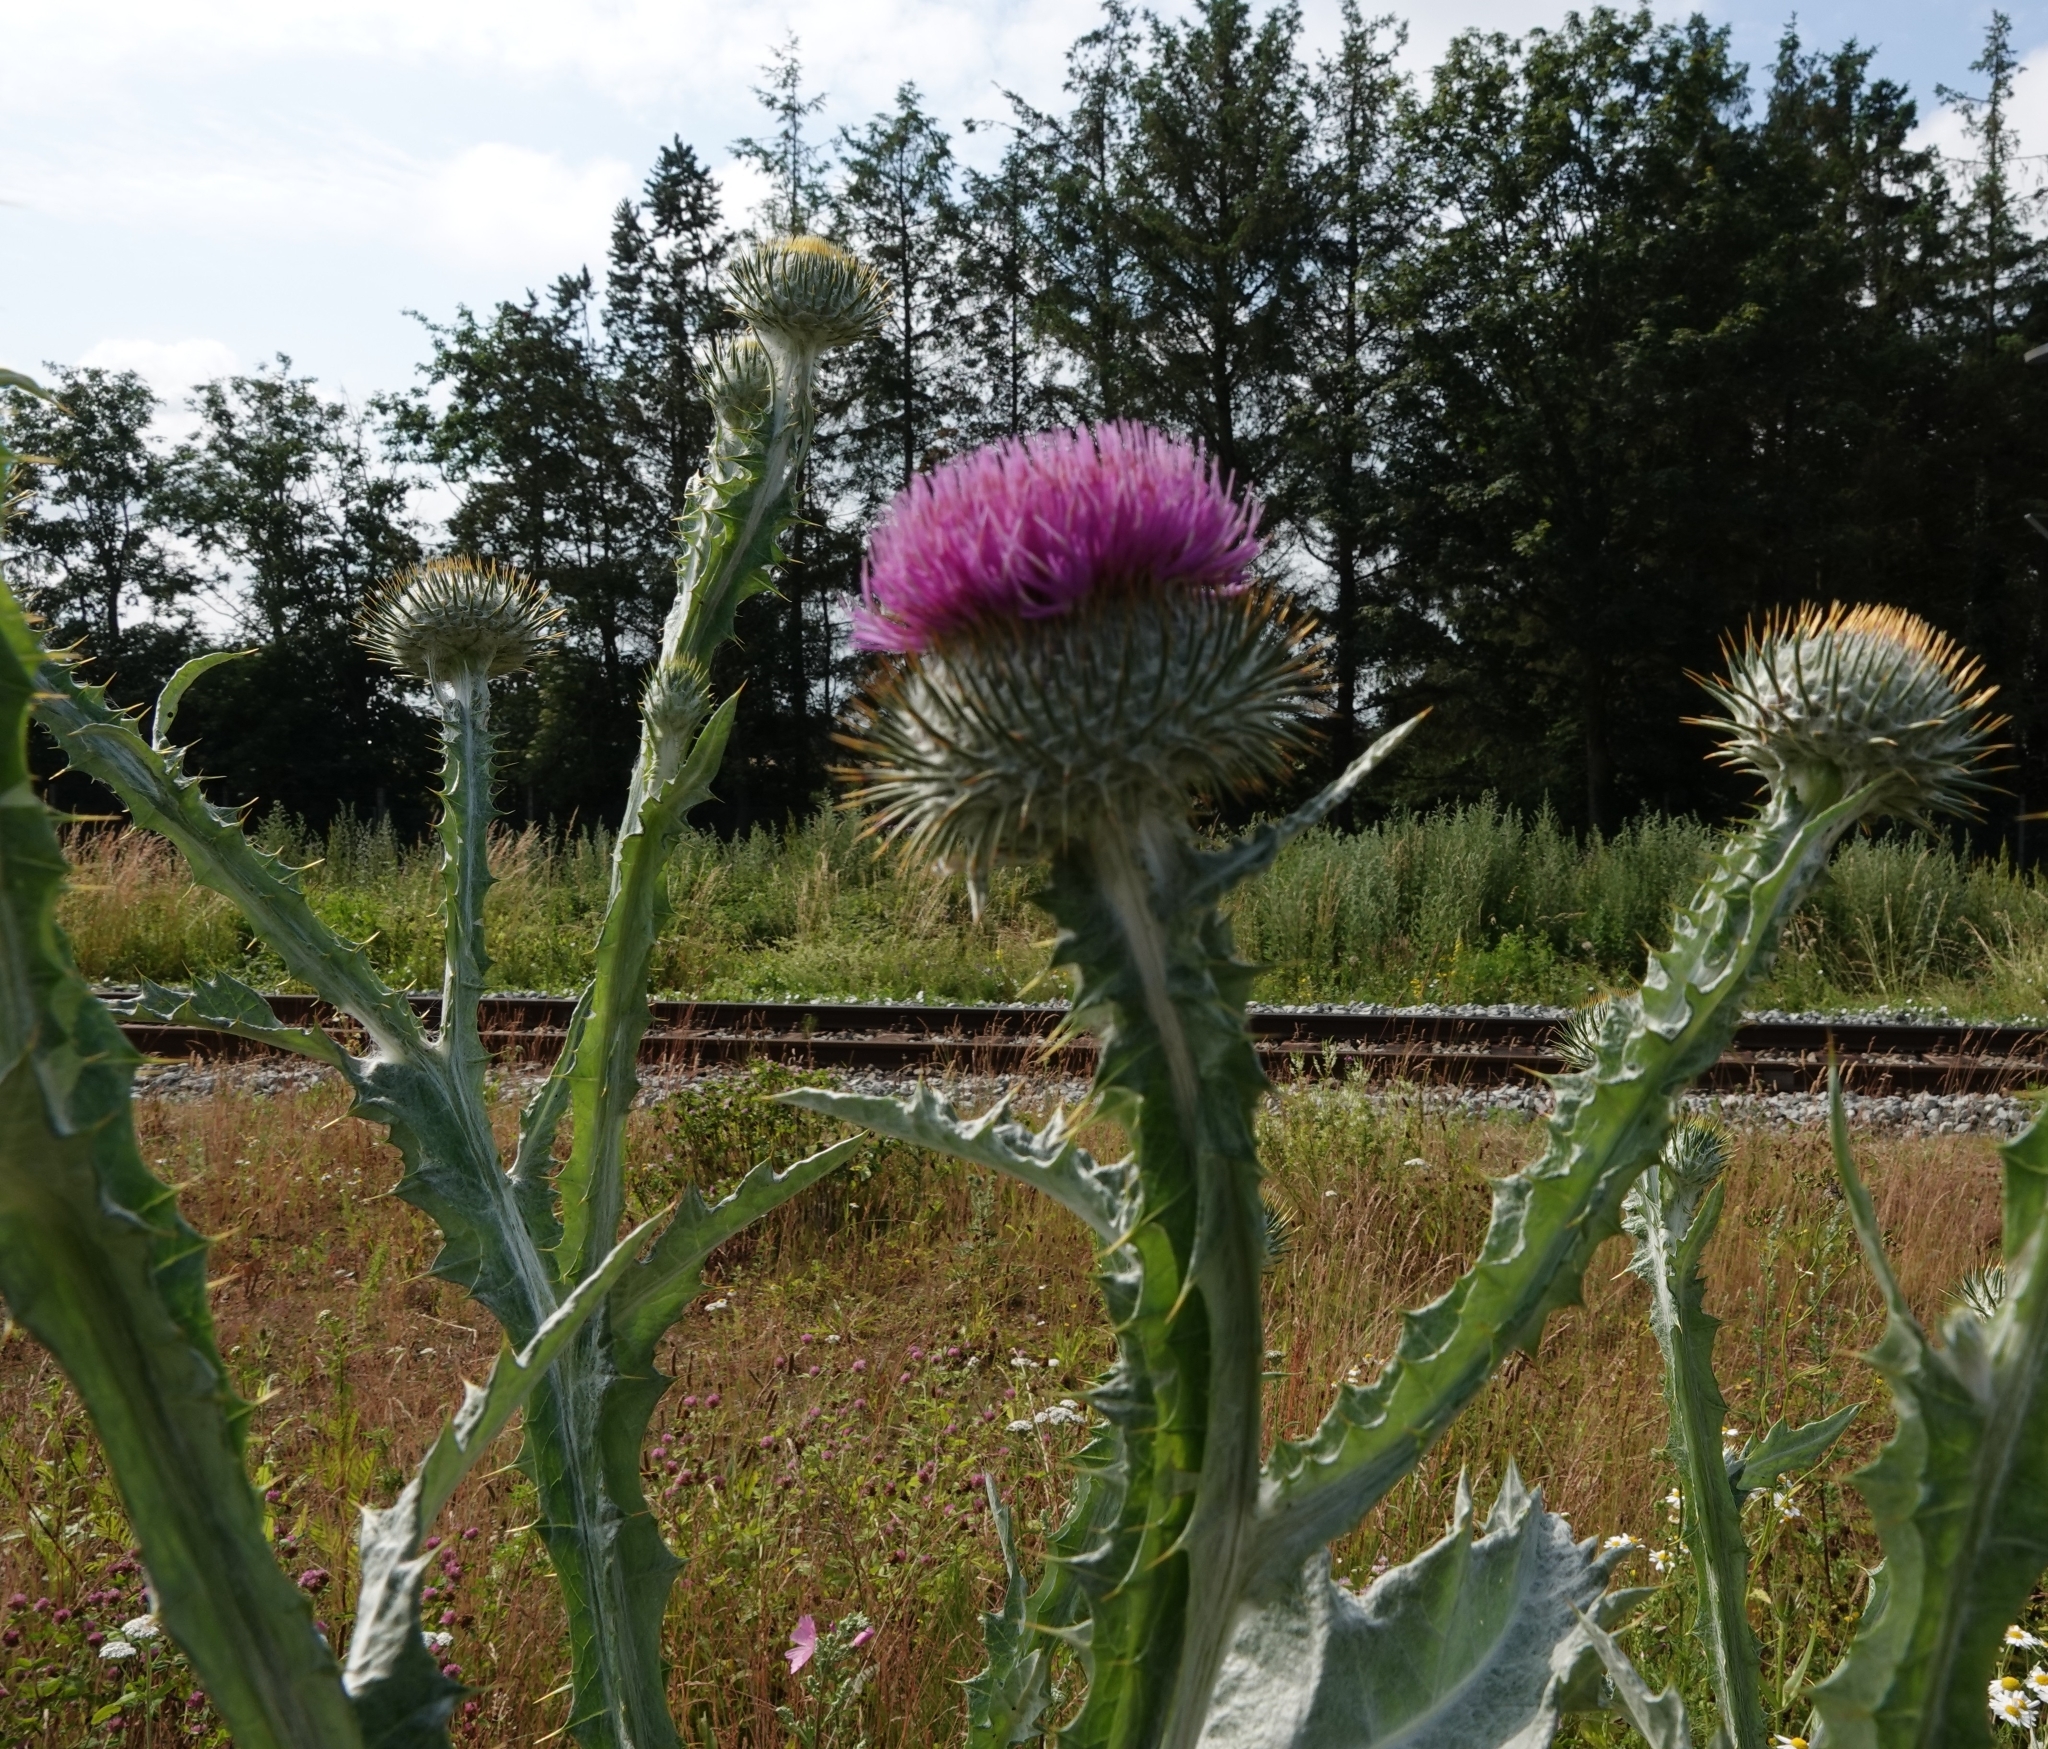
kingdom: Plantae
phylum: Tracheophyta
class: Magnoliopsida
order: Asterales
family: Asteraceae
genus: Onopordum
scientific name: Onopordum acanthium
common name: Scotch thistle
